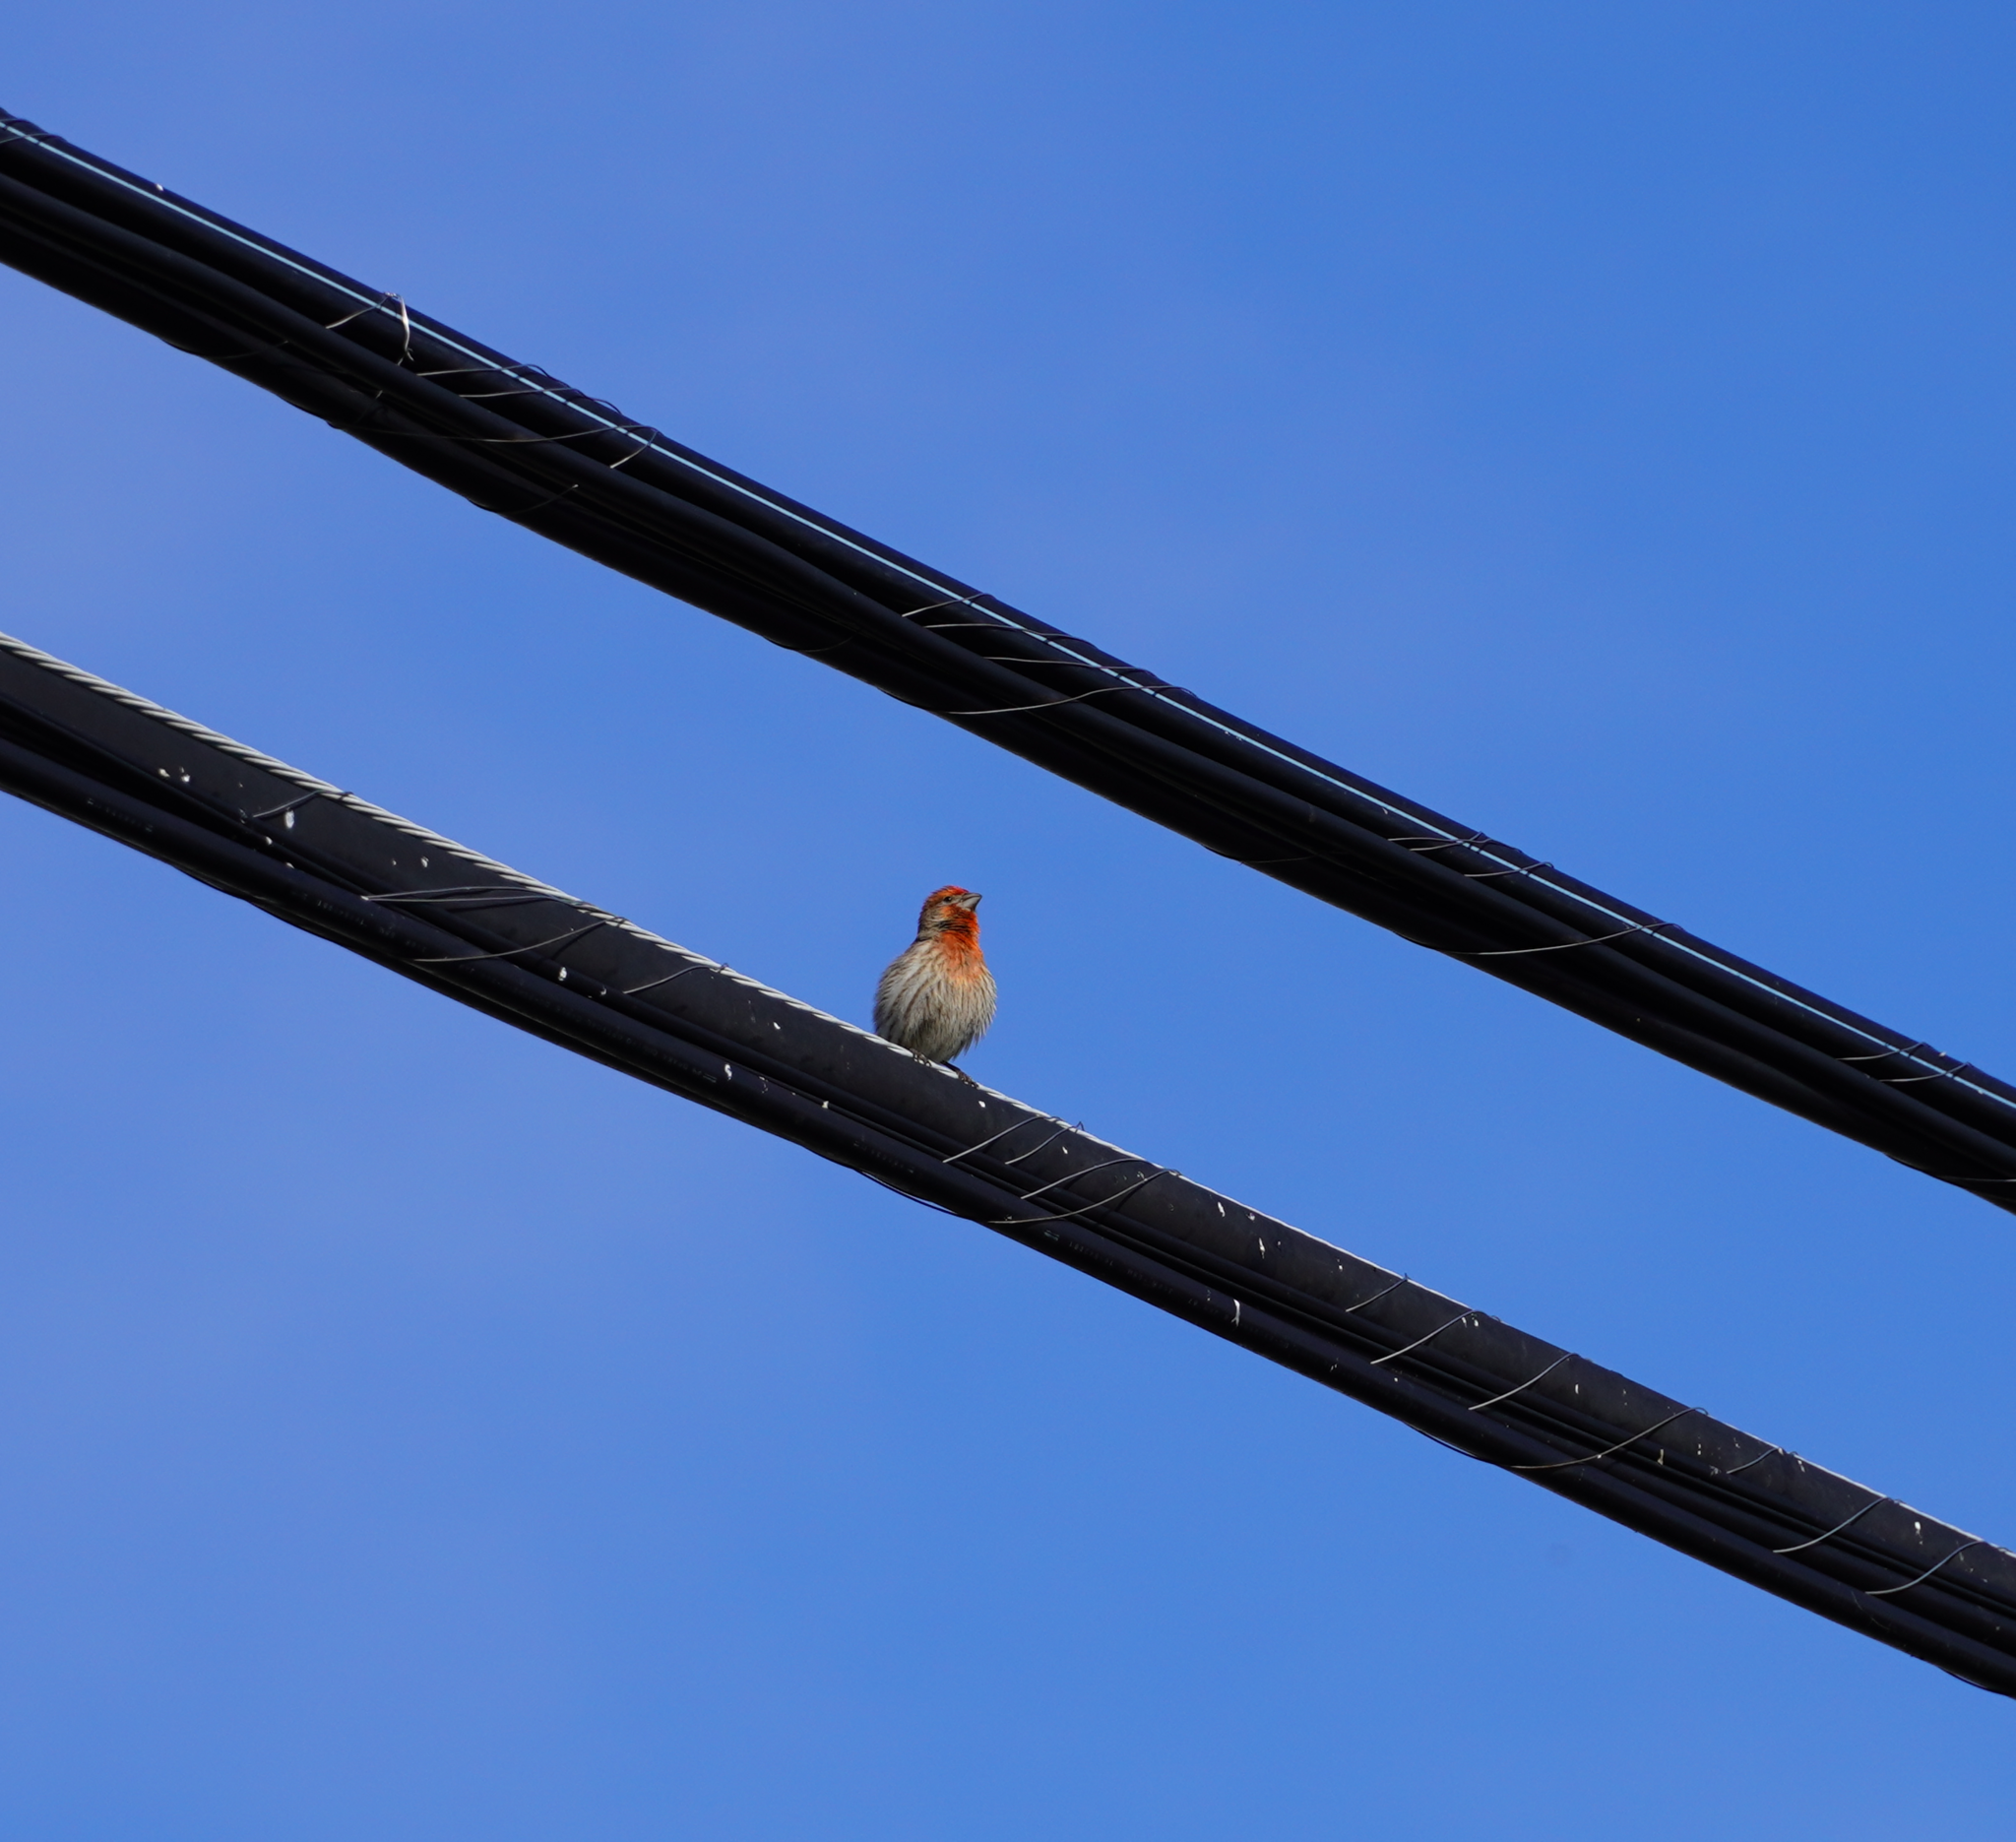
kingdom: Animalia
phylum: Chordata
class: Aves
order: Passeriformes
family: Fringillidae
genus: Haemorhous
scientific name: Haemorhous mexicanus
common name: House finch
